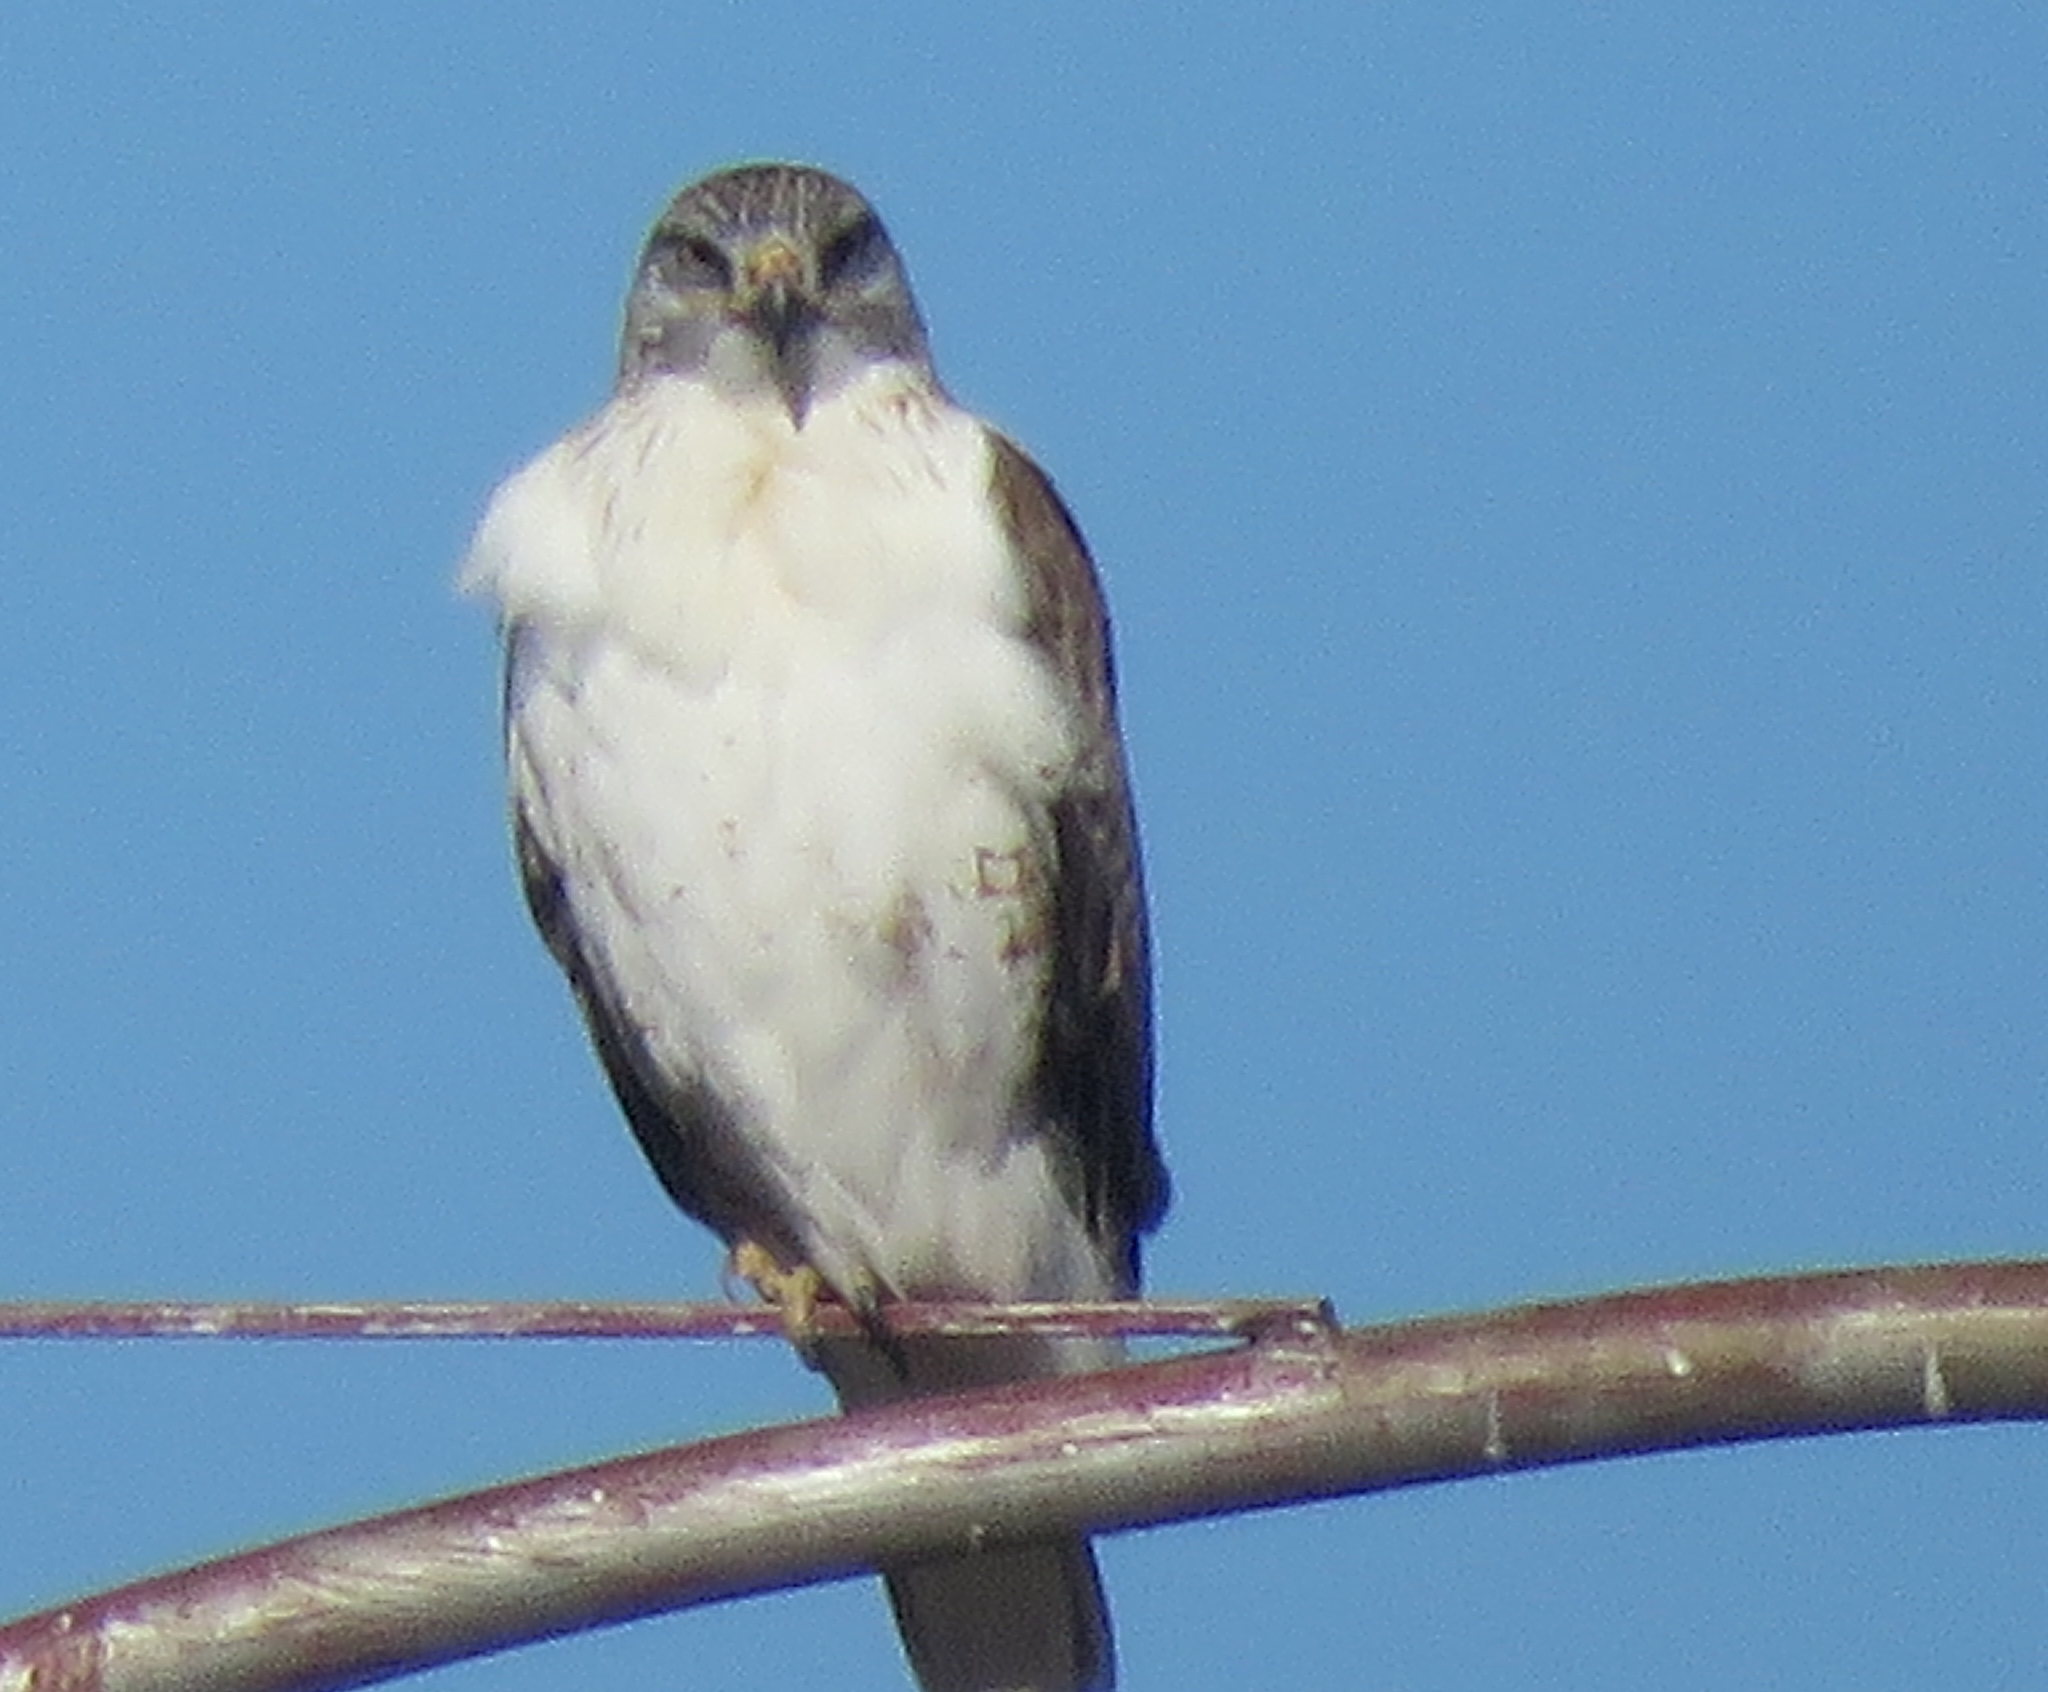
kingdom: Animalia
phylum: Chordata
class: Aves
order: Accipitriformes
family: Accipitridae
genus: Buteo
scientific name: Buteo regalis
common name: Ferruginous hawk
